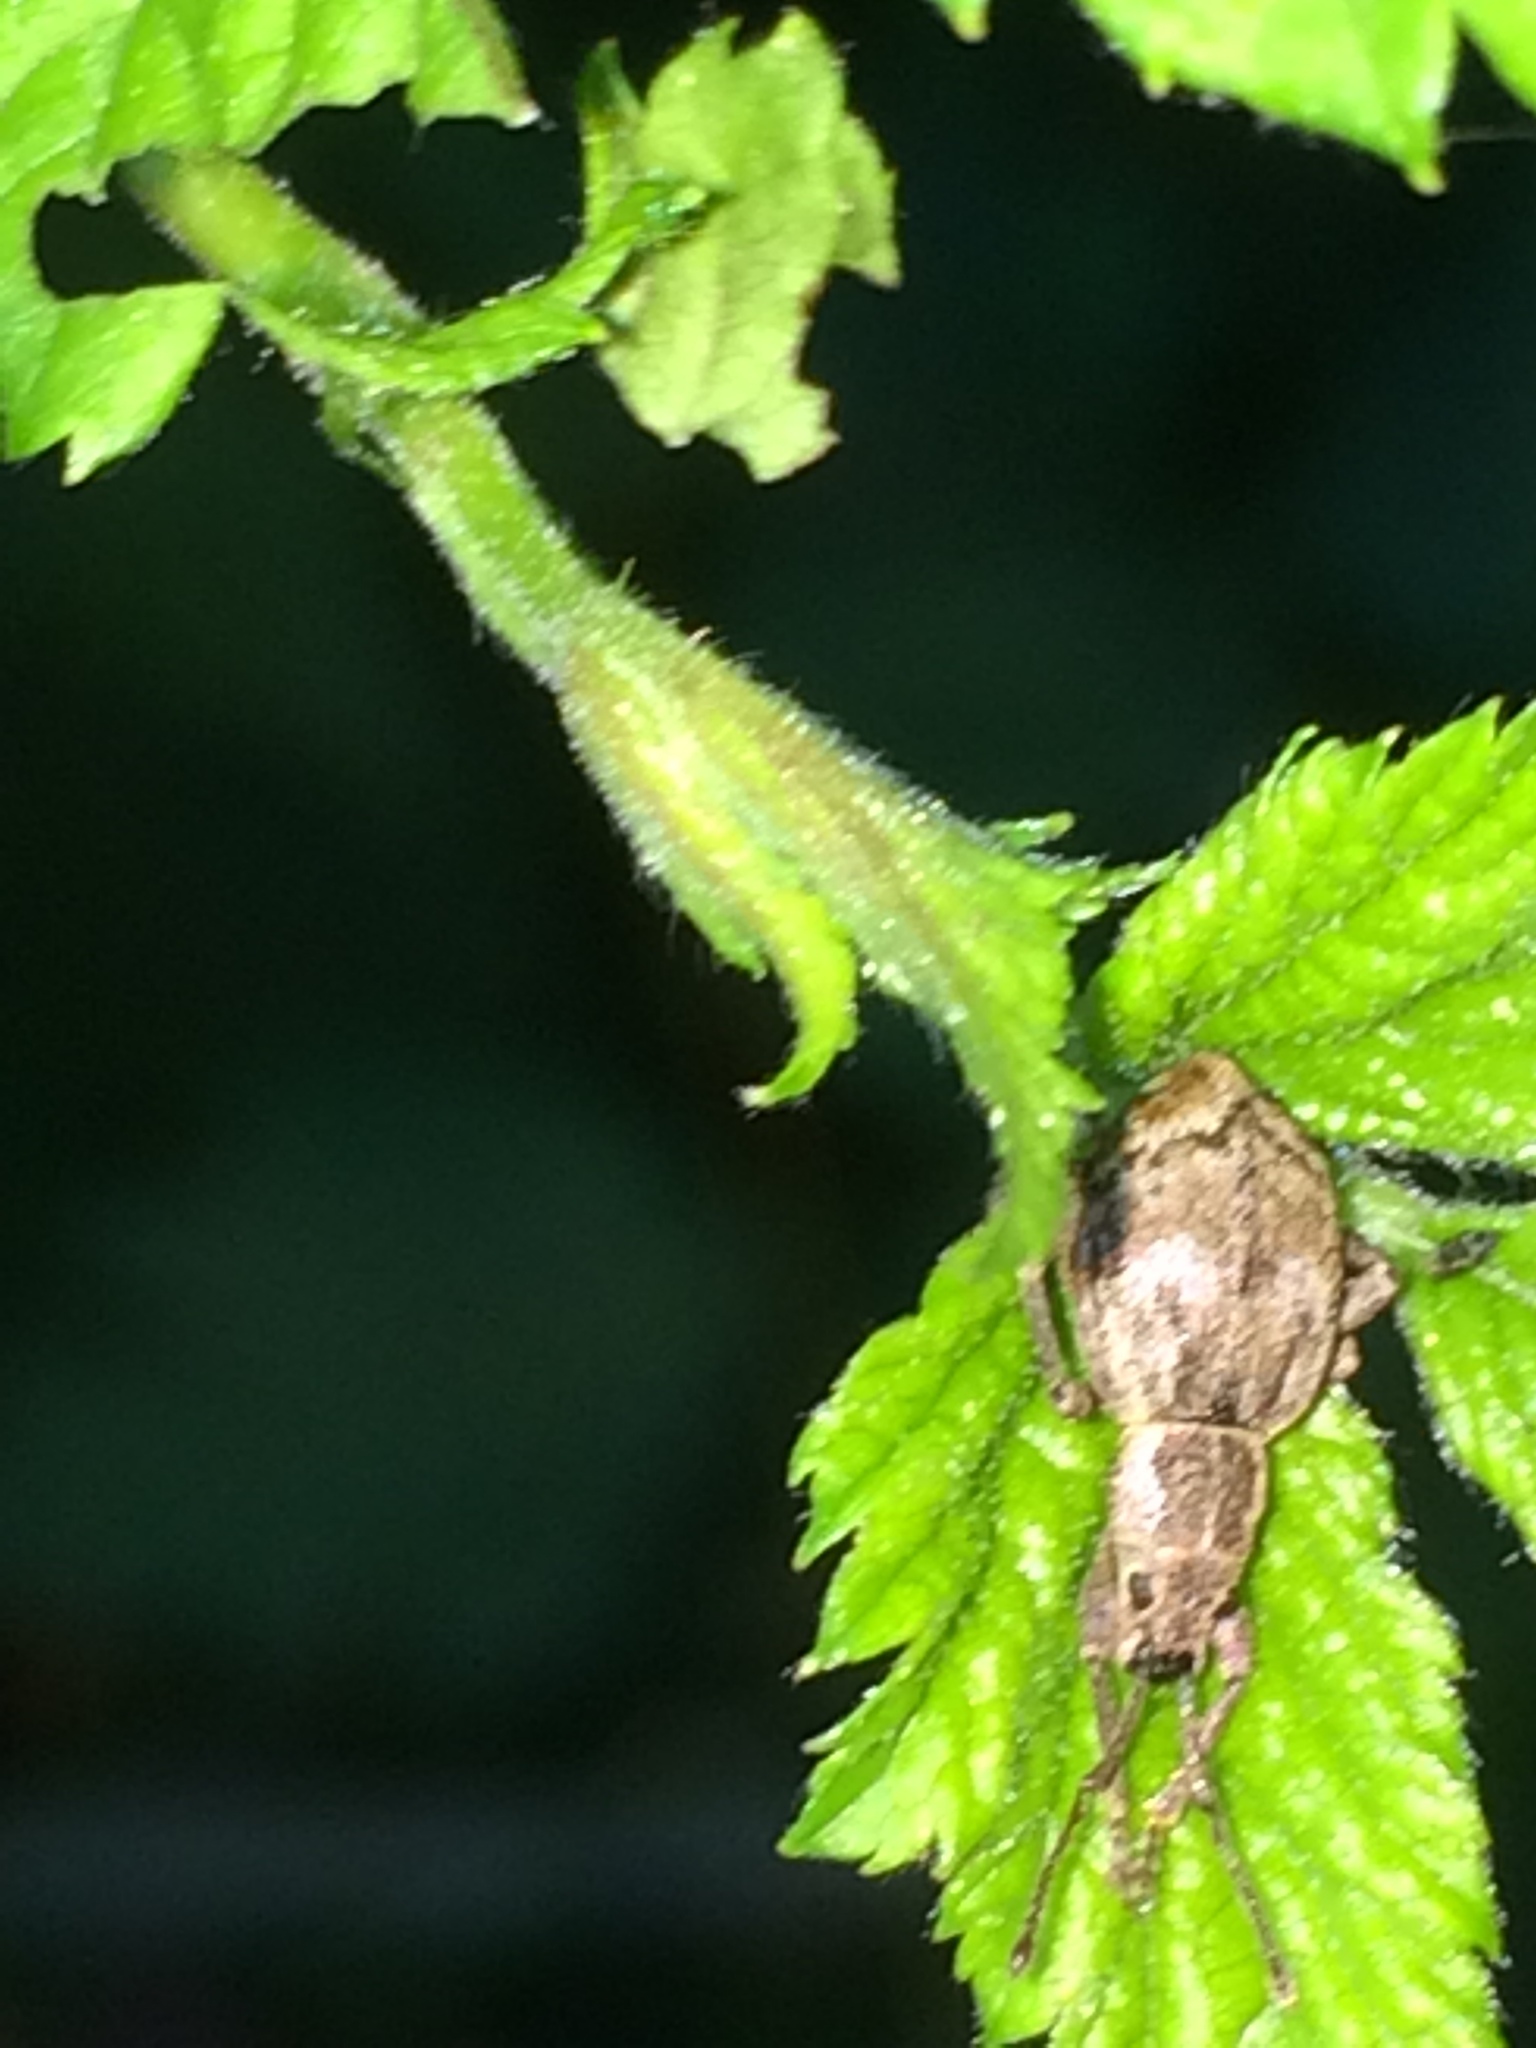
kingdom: Animalia
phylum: Arthropoda
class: Insecta
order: Coleoptera
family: Curculionidae
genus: Sciopithes
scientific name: Sciopithes obscurus
